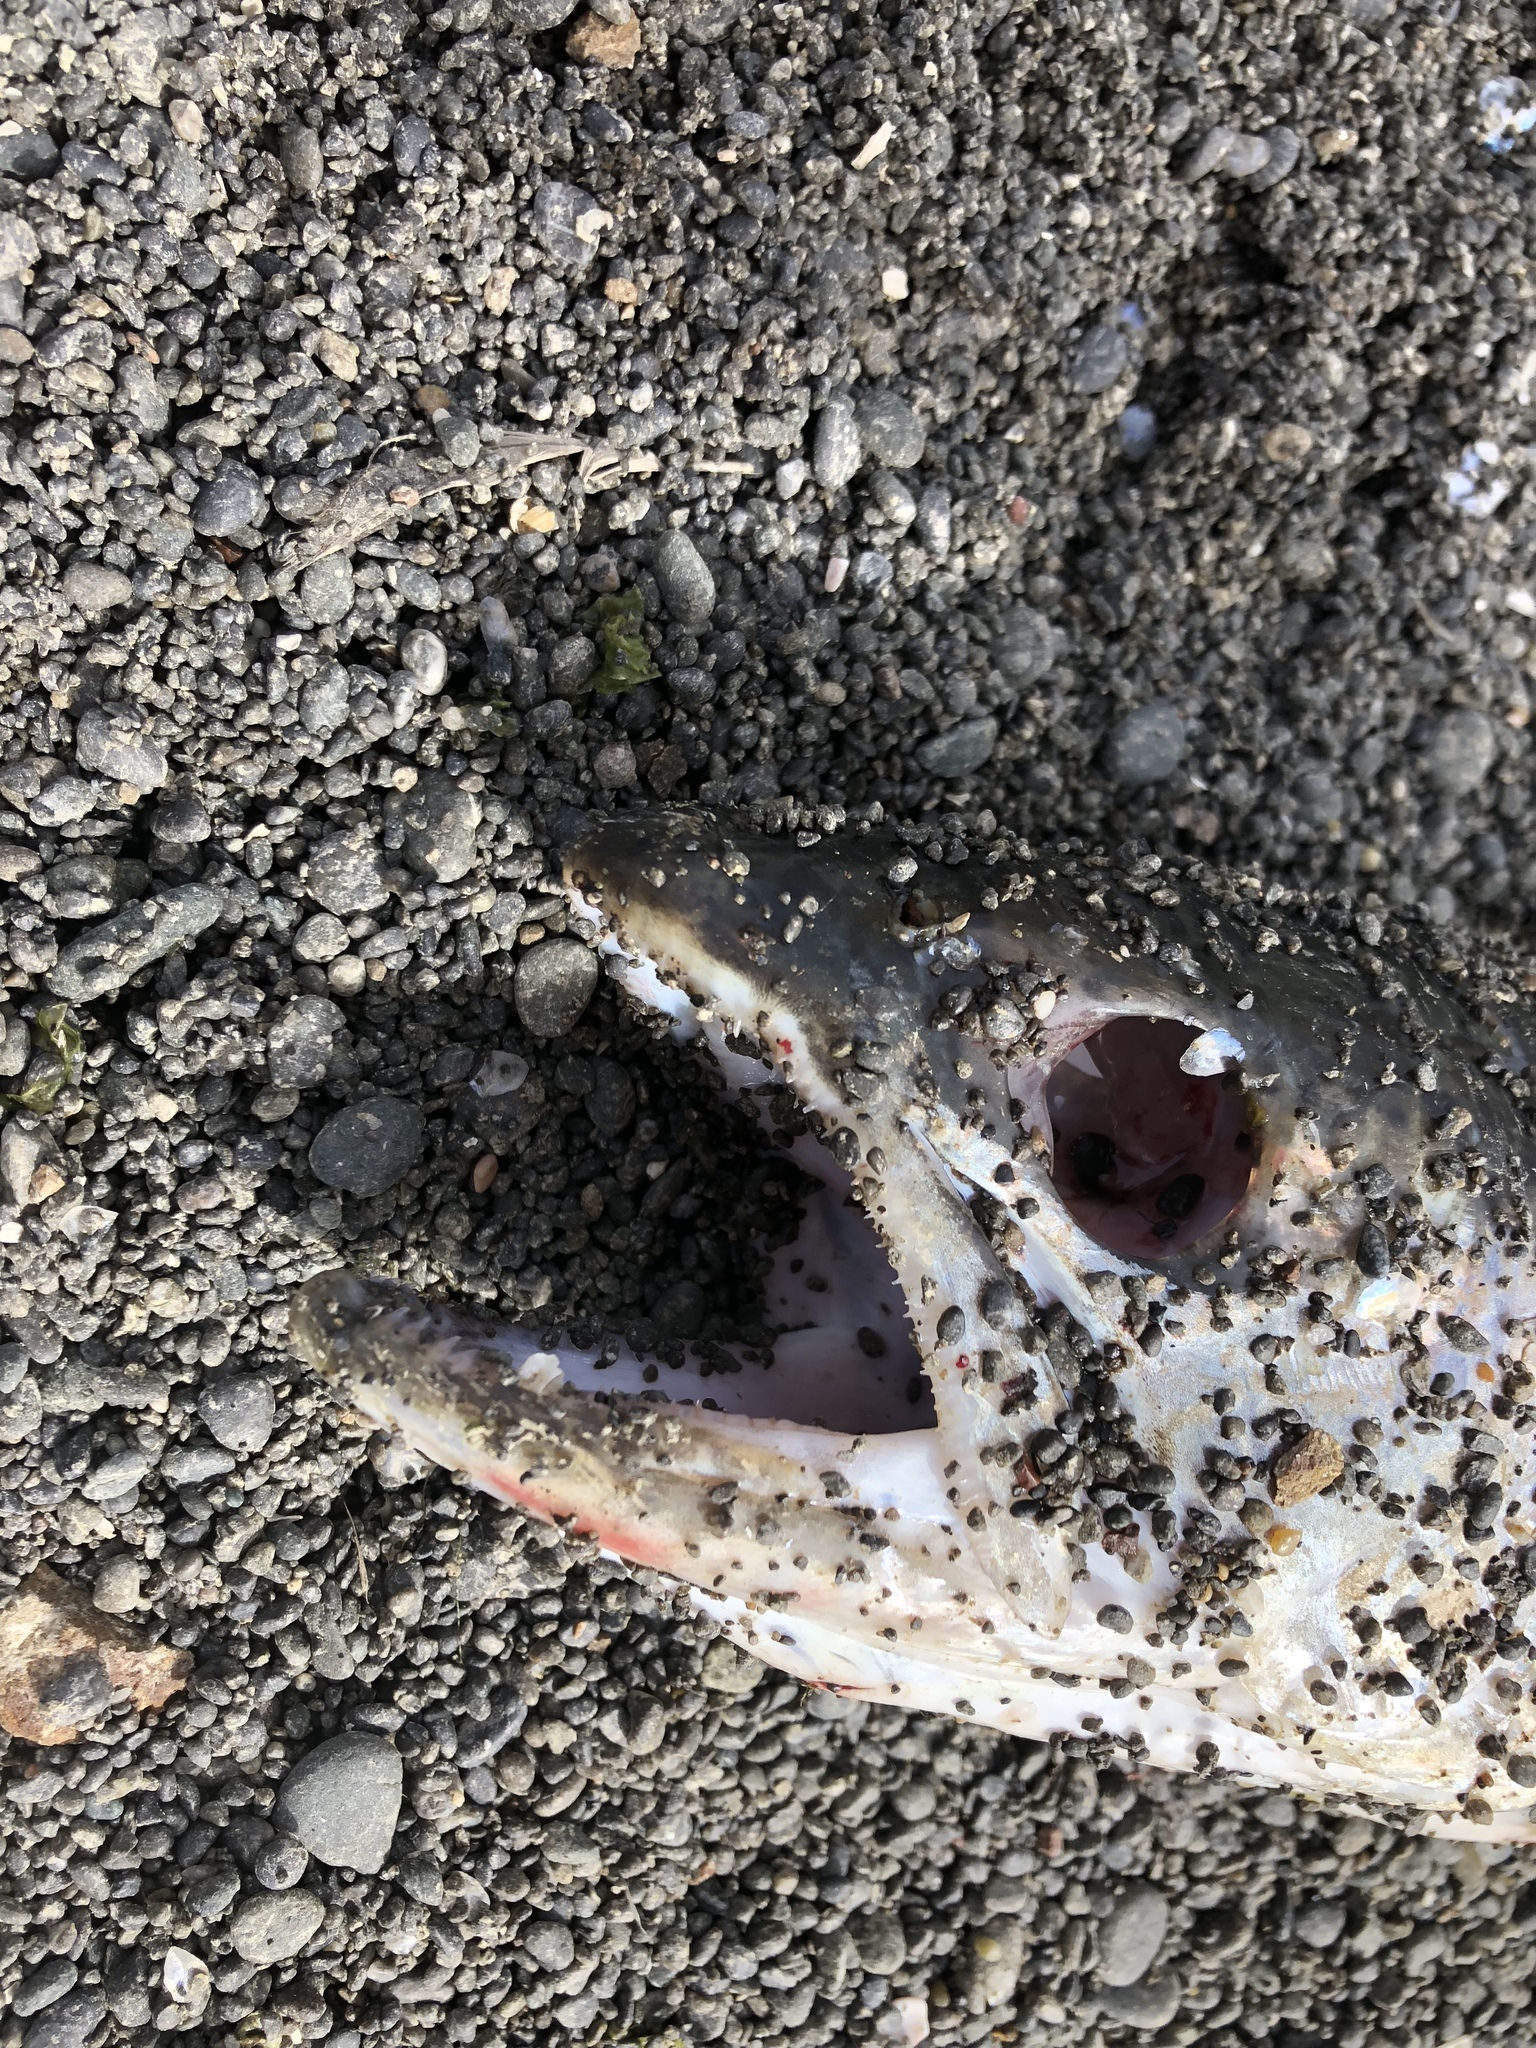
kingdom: Animalia
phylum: Chordata
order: Salmoniformes
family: Salmonidae
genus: Oncorhynchus
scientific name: Oncorhynchus mykiss
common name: Rainbow trout
